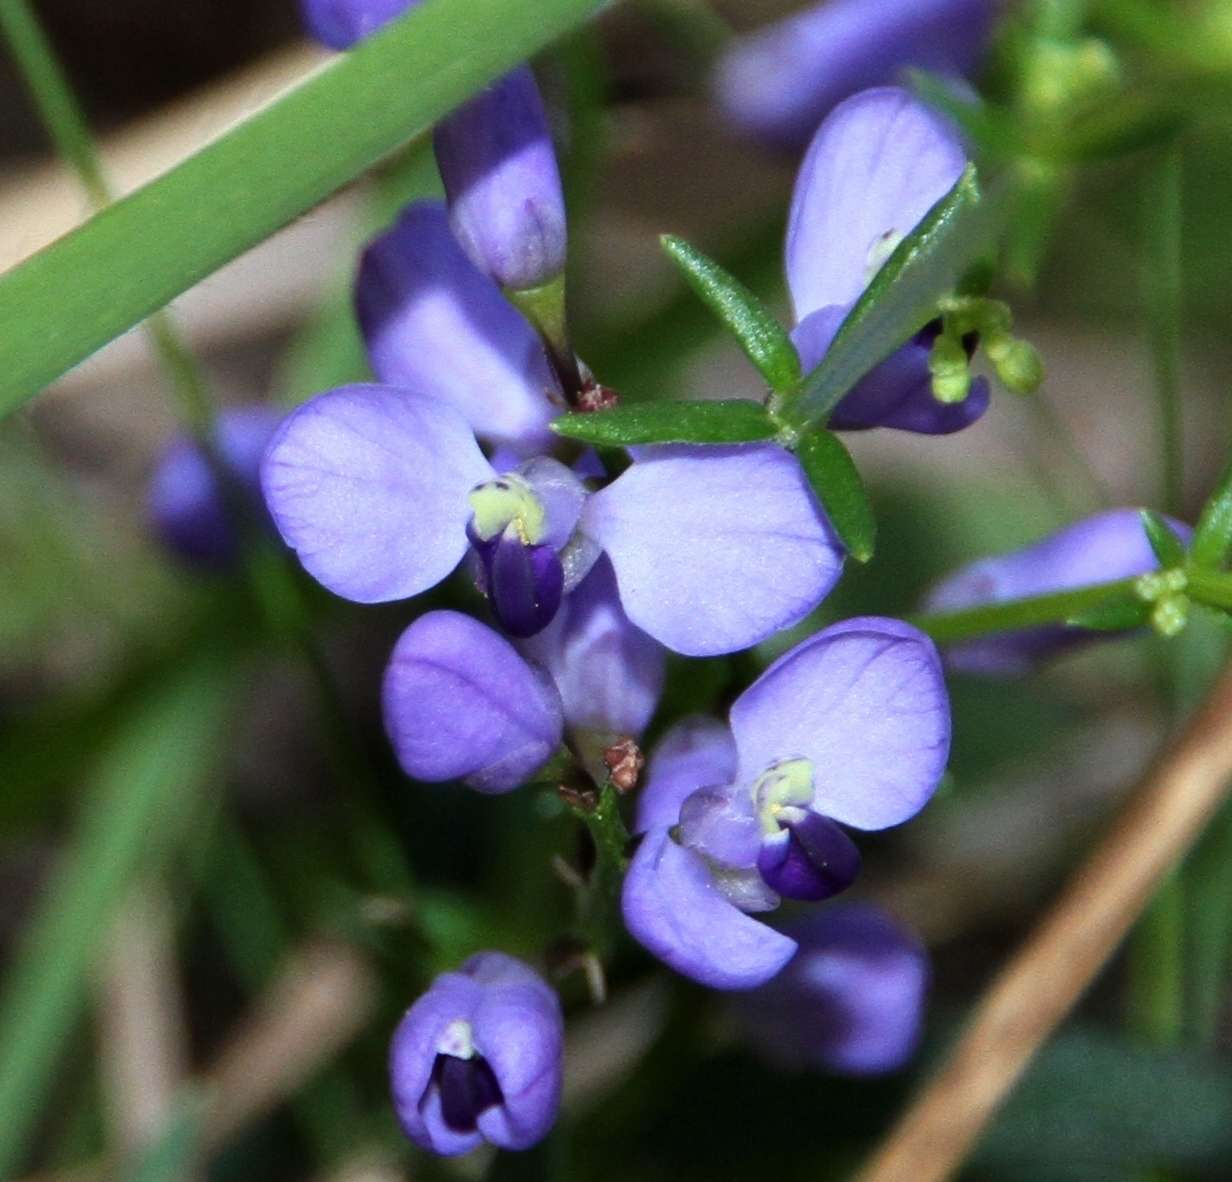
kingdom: Plantae
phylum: Tracheophyta
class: Magnoliopsida
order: Fabales
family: Polygalaceae
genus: Comesperma
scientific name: Comesperma volubile
